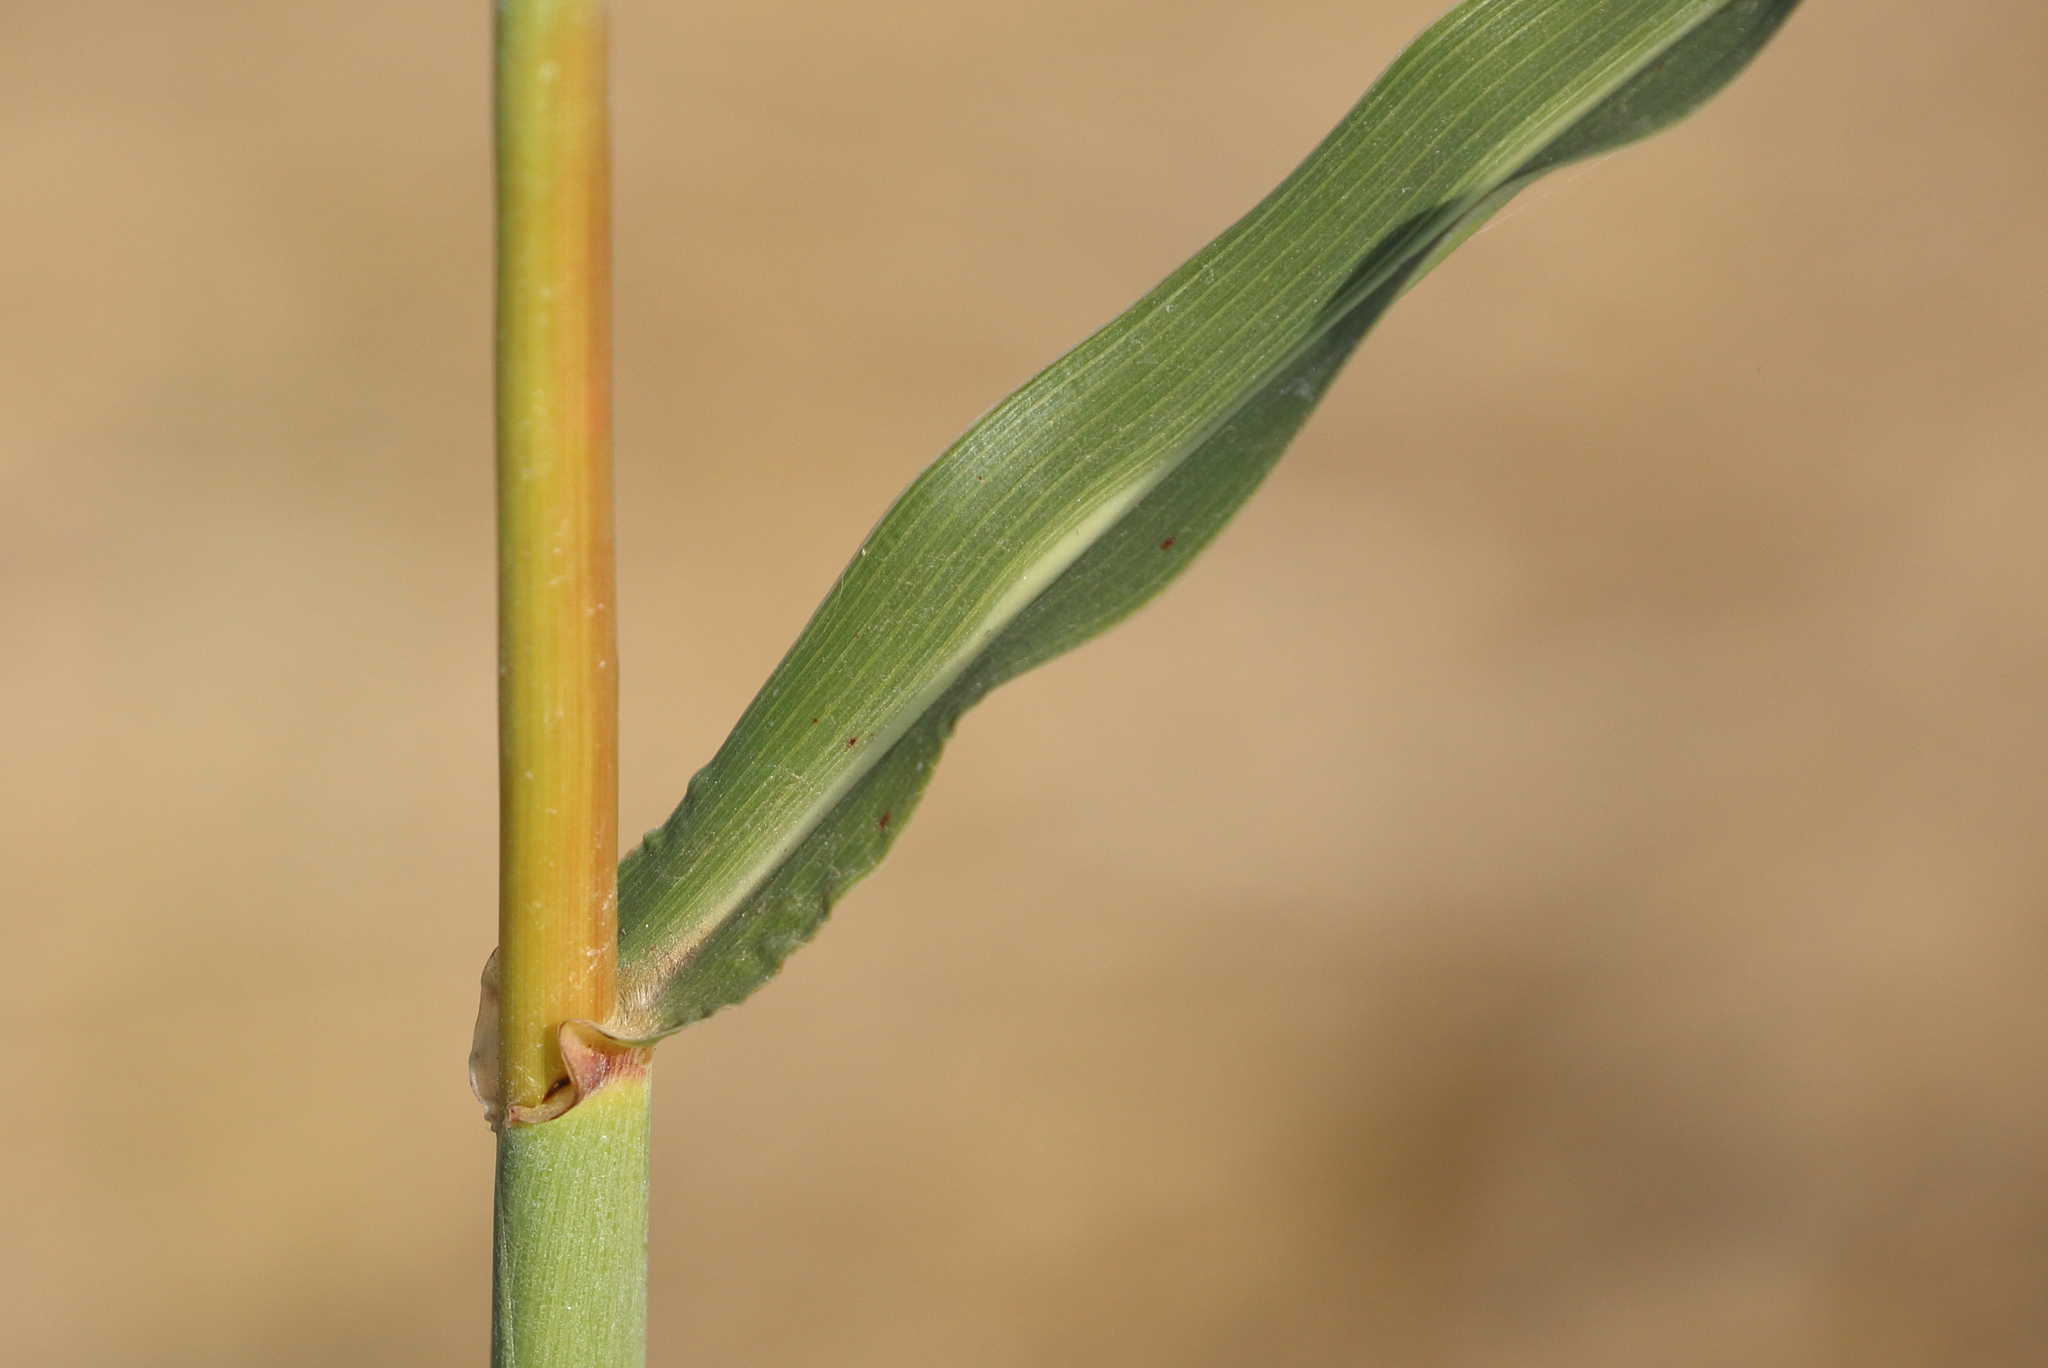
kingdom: Plantae
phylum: Tracheophyta
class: Liliopsida
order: Poales
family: Poaceae
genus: Sorghum
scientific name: Sorghum halepense
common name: Johnson-grass
